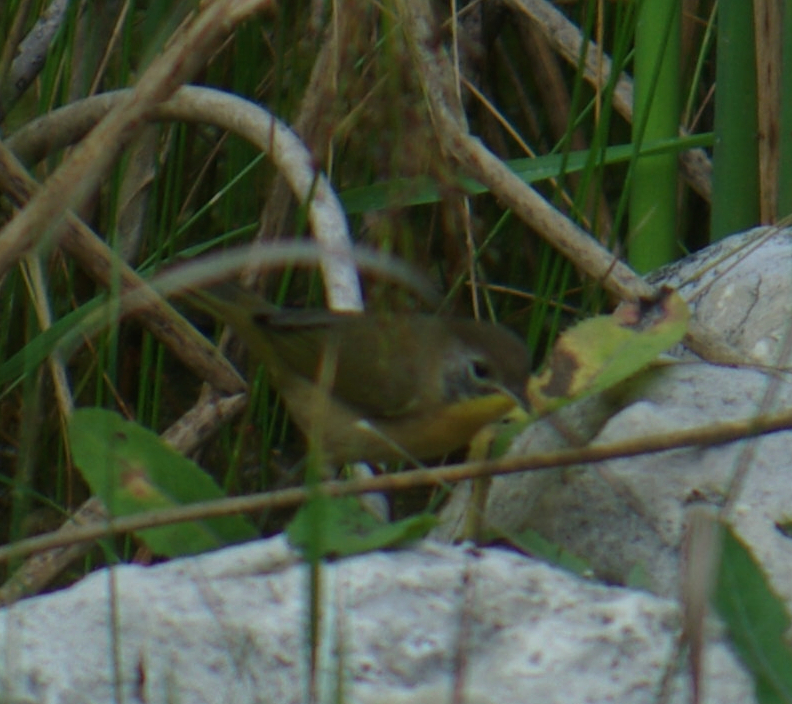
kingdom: Animalia
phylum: Chordata
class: Aves
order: Passeriformes
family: Parulidae
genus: Geothlypis
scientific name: Geothlypis trichas
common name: Common yellowthroat
